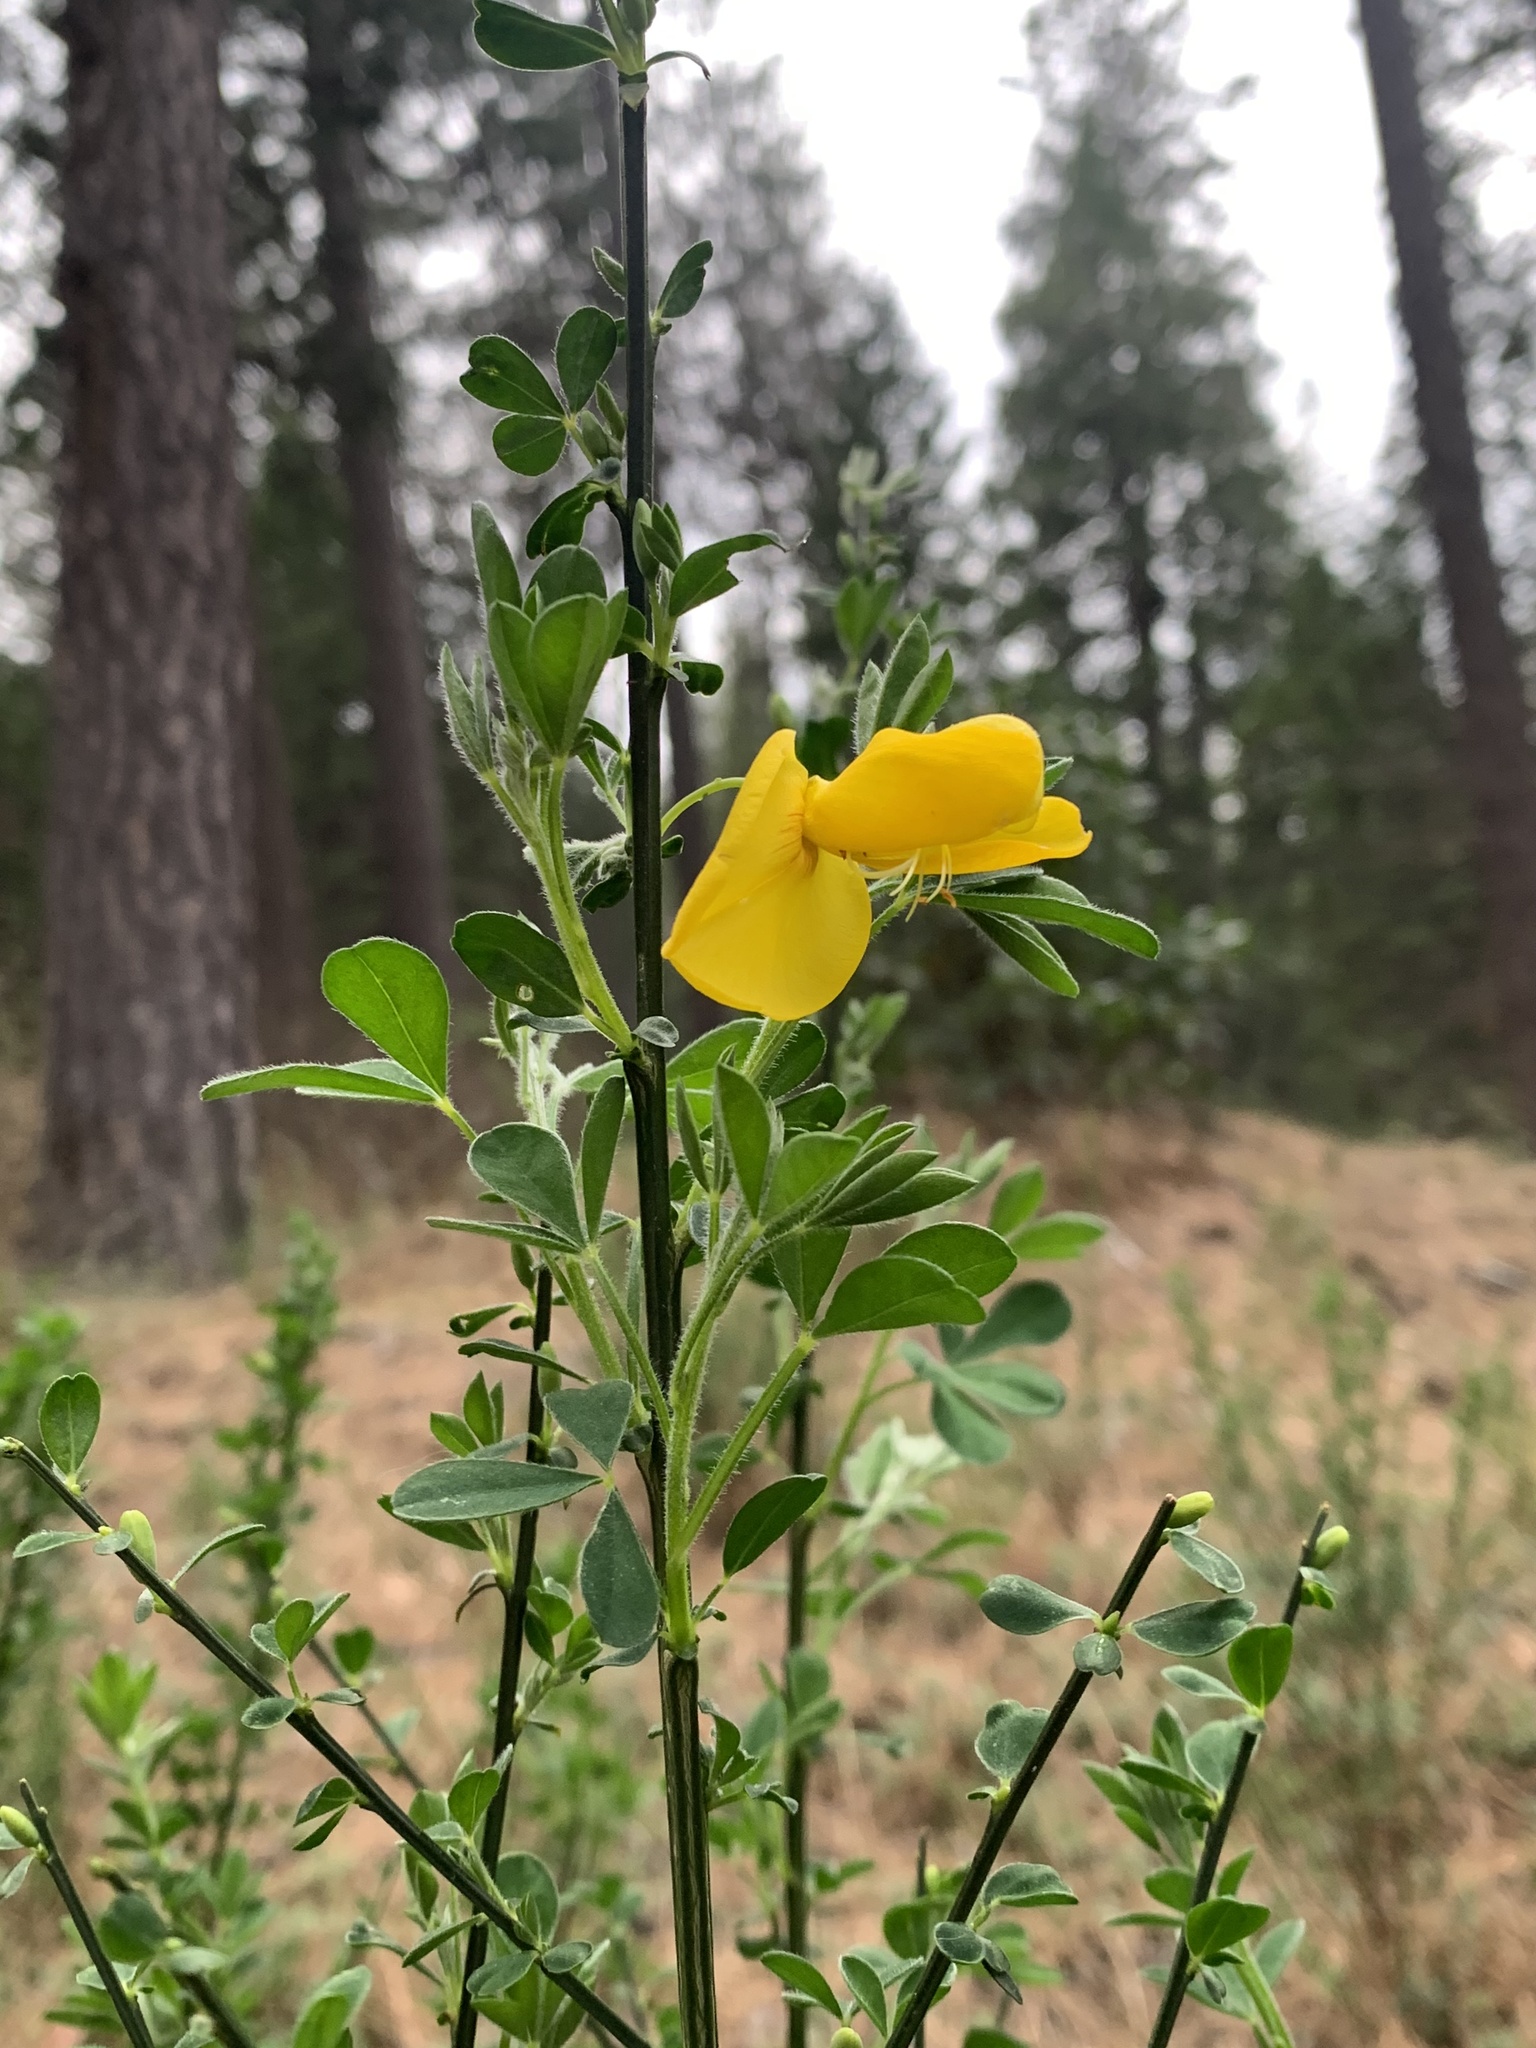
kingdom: Plantae
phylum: Tracheophyta
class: Magnoliopsida
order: Fabales
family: Fabaceae
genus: Cytisus
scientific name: Cytisus scoparius
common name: Scotch broom
